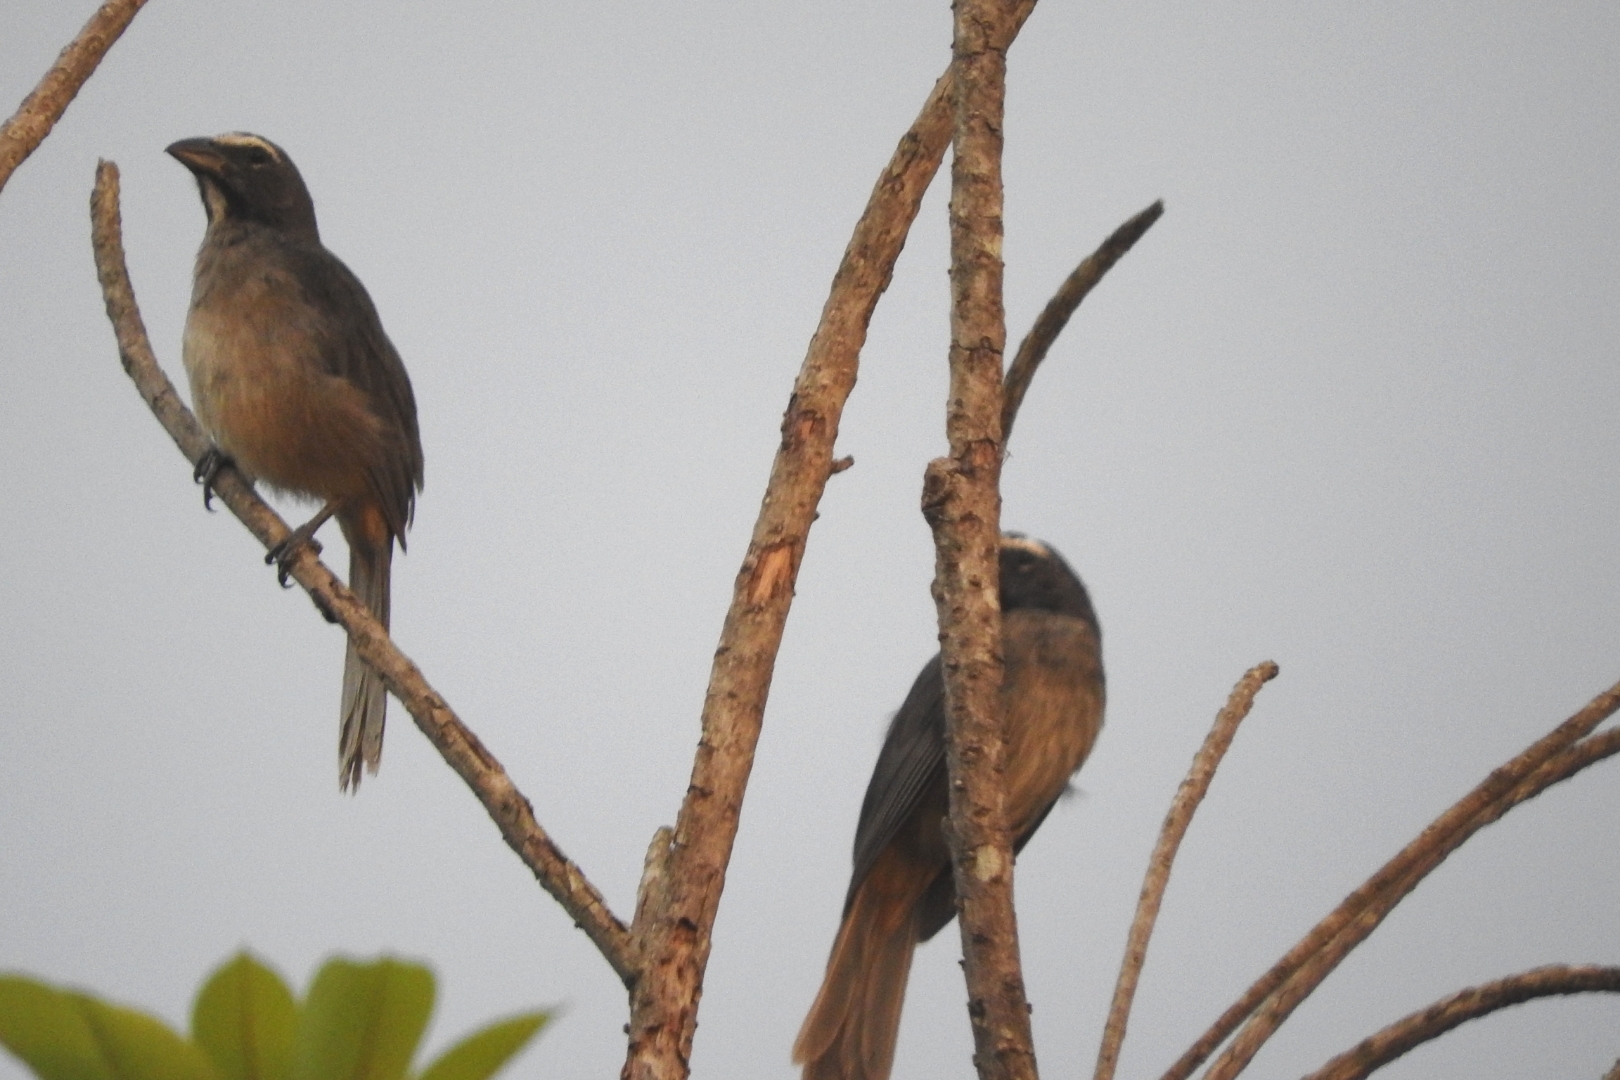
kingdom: Animalia
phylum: Chordata
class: Aves
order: Passeriformes
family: Thraupidae
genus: Saltator
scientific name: Saltator grandis
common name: Cinnamon-bellied saltator
